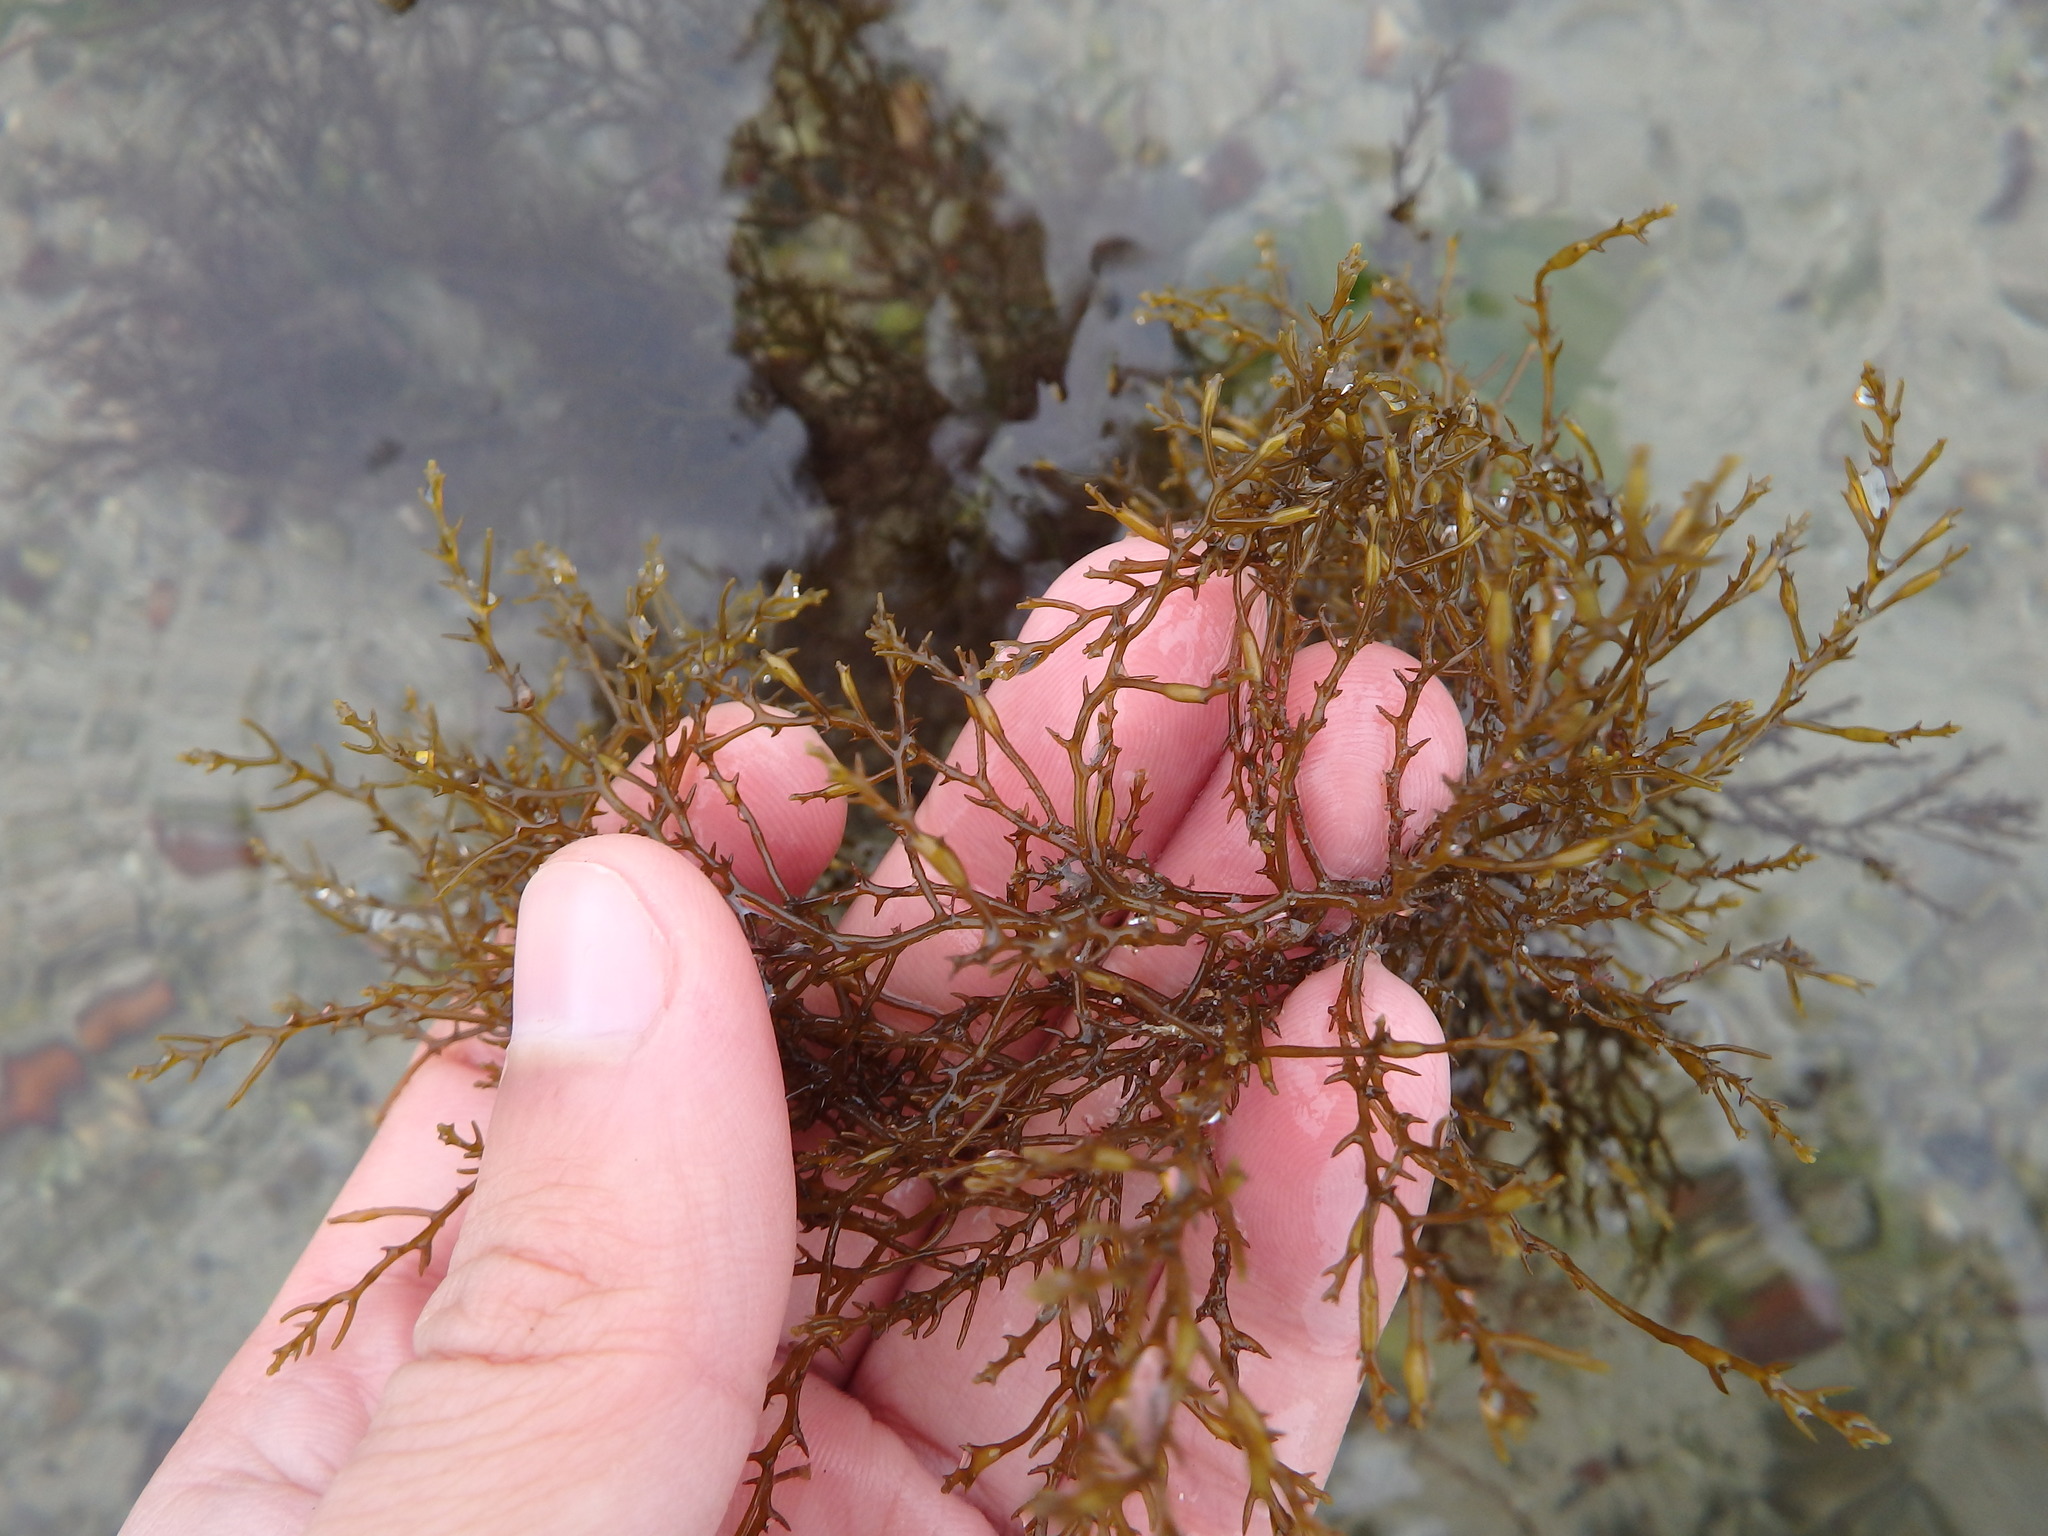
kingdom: Chromista
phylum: Ochrophyta
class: Phaeophyceae
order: Fucales
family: Sargassaceae
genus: Cystoseira
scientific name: Cystoseira
